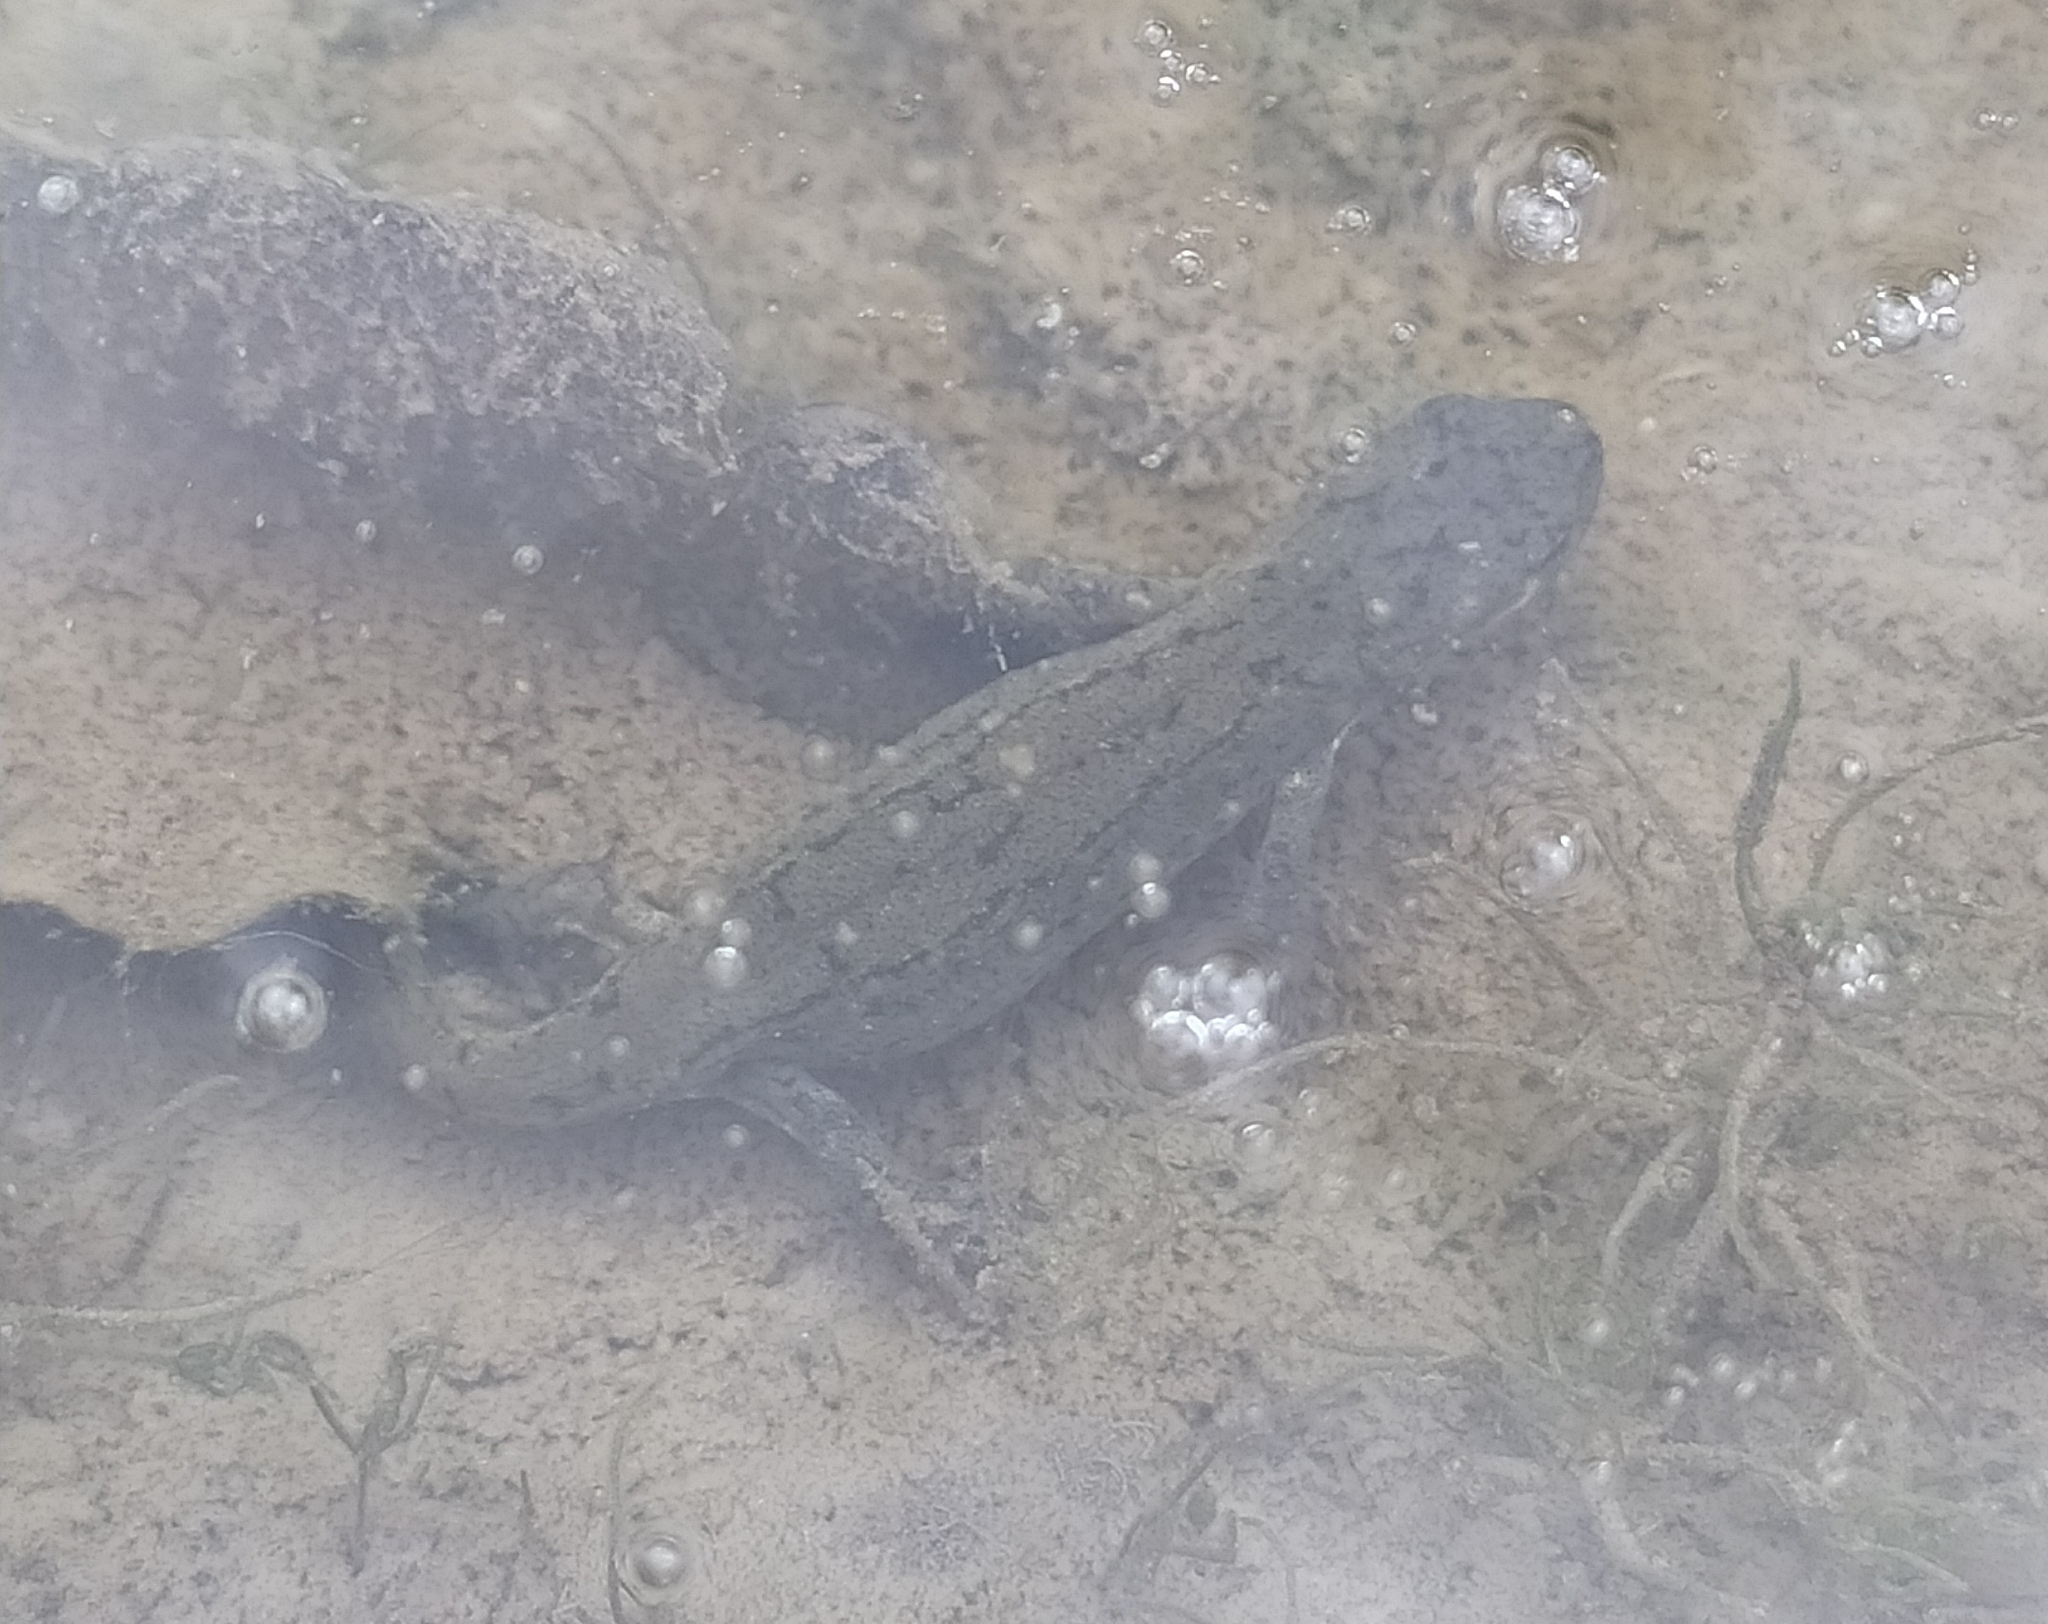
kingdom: Animalia
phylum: Chordata
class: Amphibia
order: Caudata
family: Salamandridae
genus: Lissotriton
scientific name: Lissotriton italicus
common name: Italian newt
